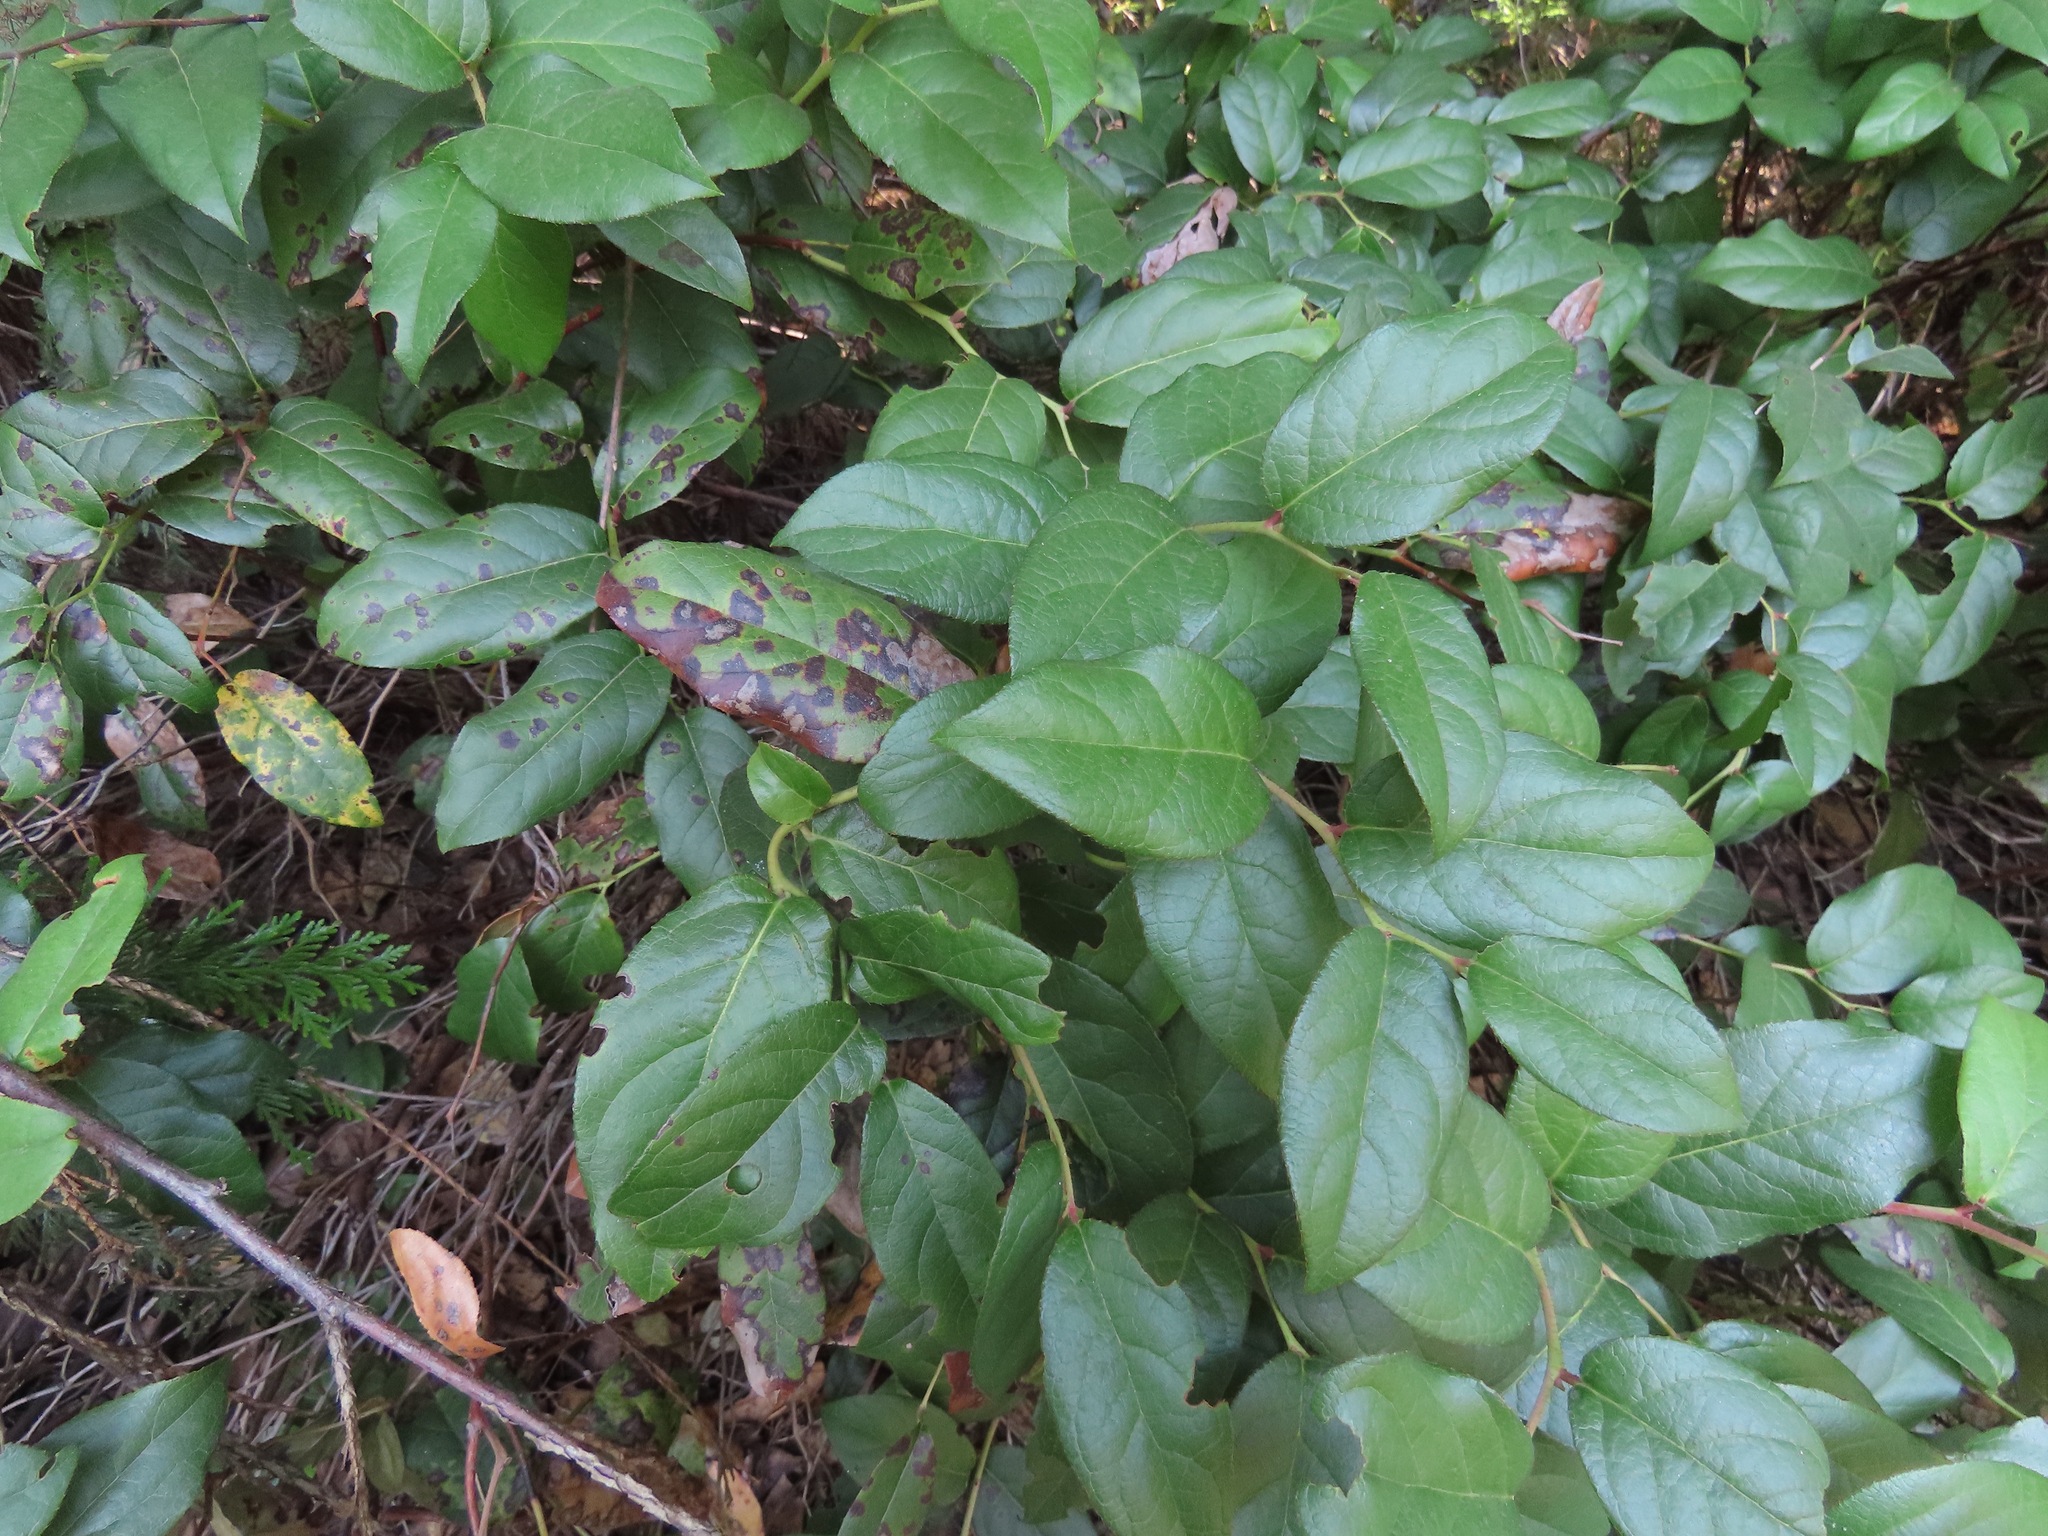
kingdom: Plantae
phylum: Tracheophyta
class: Magnoliopsida
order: Ericales
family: Ericaceae
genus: Gaultheria
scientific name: Gaultheria shallon
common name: Shallon
